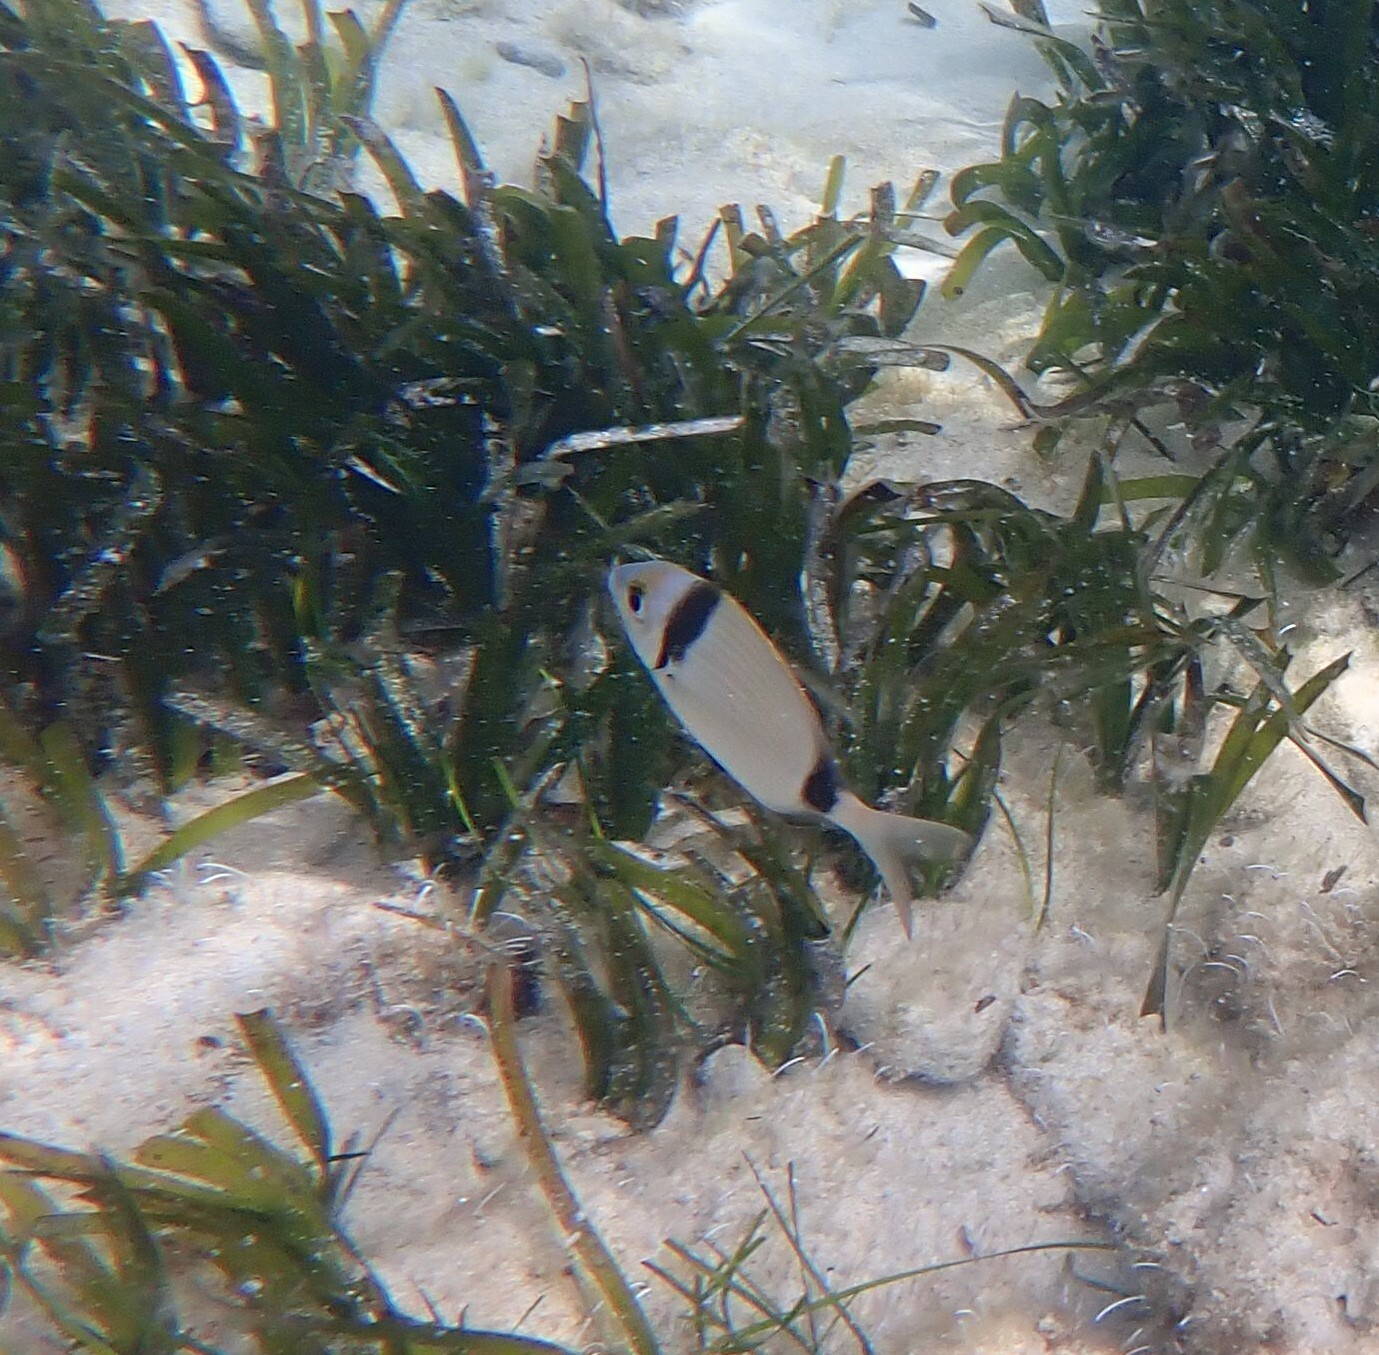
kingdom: Animalia
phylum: Chordata
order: Perciformes
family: Sparidae
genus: Diplodus
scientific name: Diplodus vulgaris
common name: Common two-banded seabream
